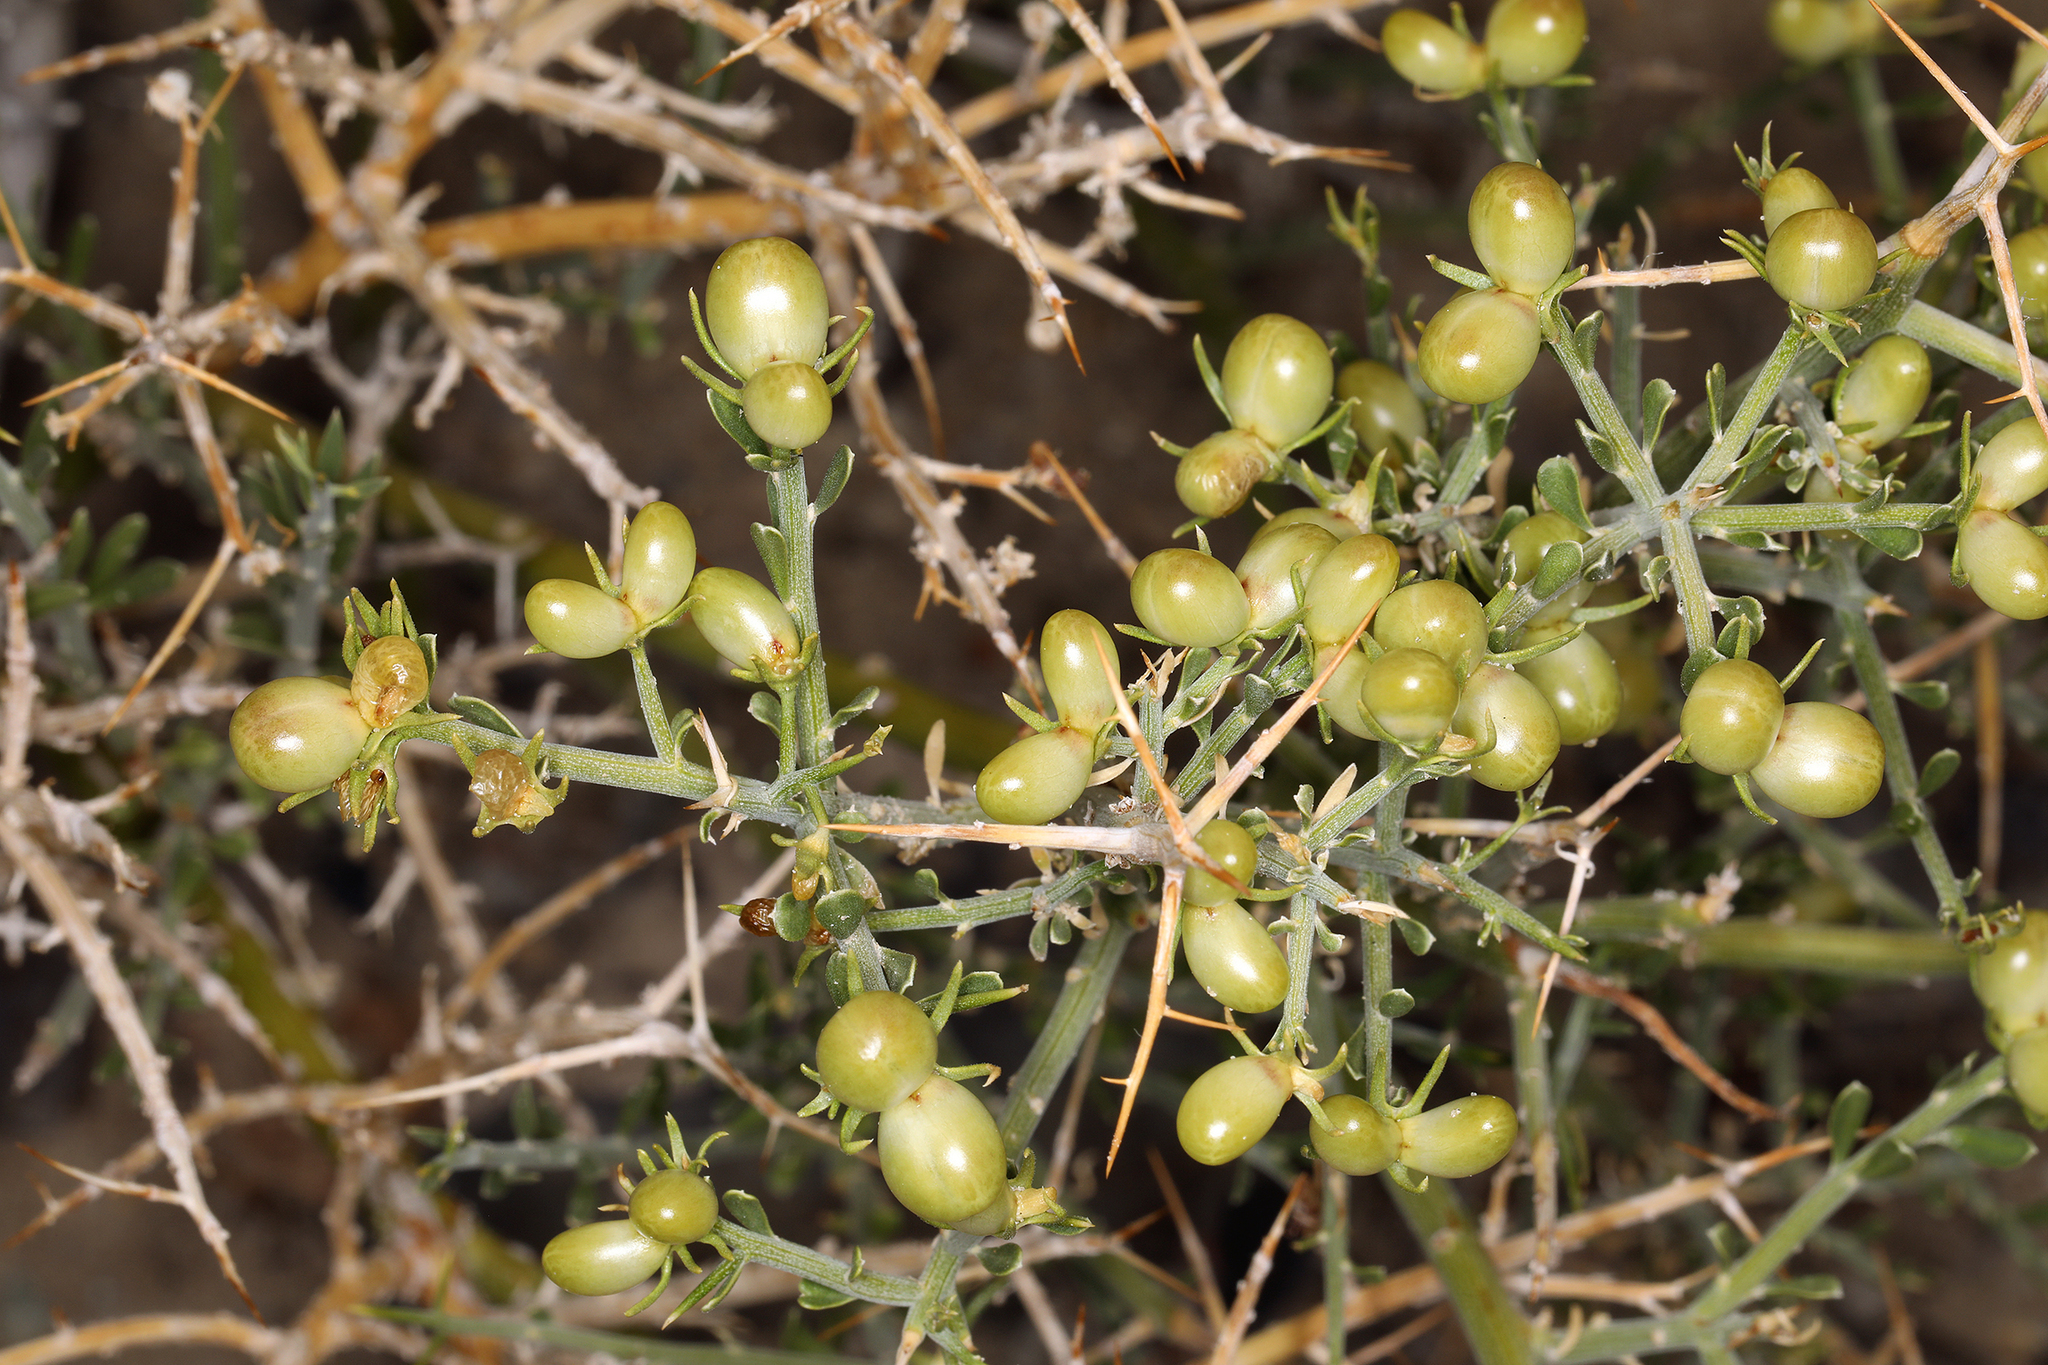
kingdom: Plantae
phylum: Tracheophyta
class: Magnoliopsida
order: Lamiales
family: Oleaceae
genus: Menodora
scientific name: Menodora spinescens
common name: Spiny menodora
